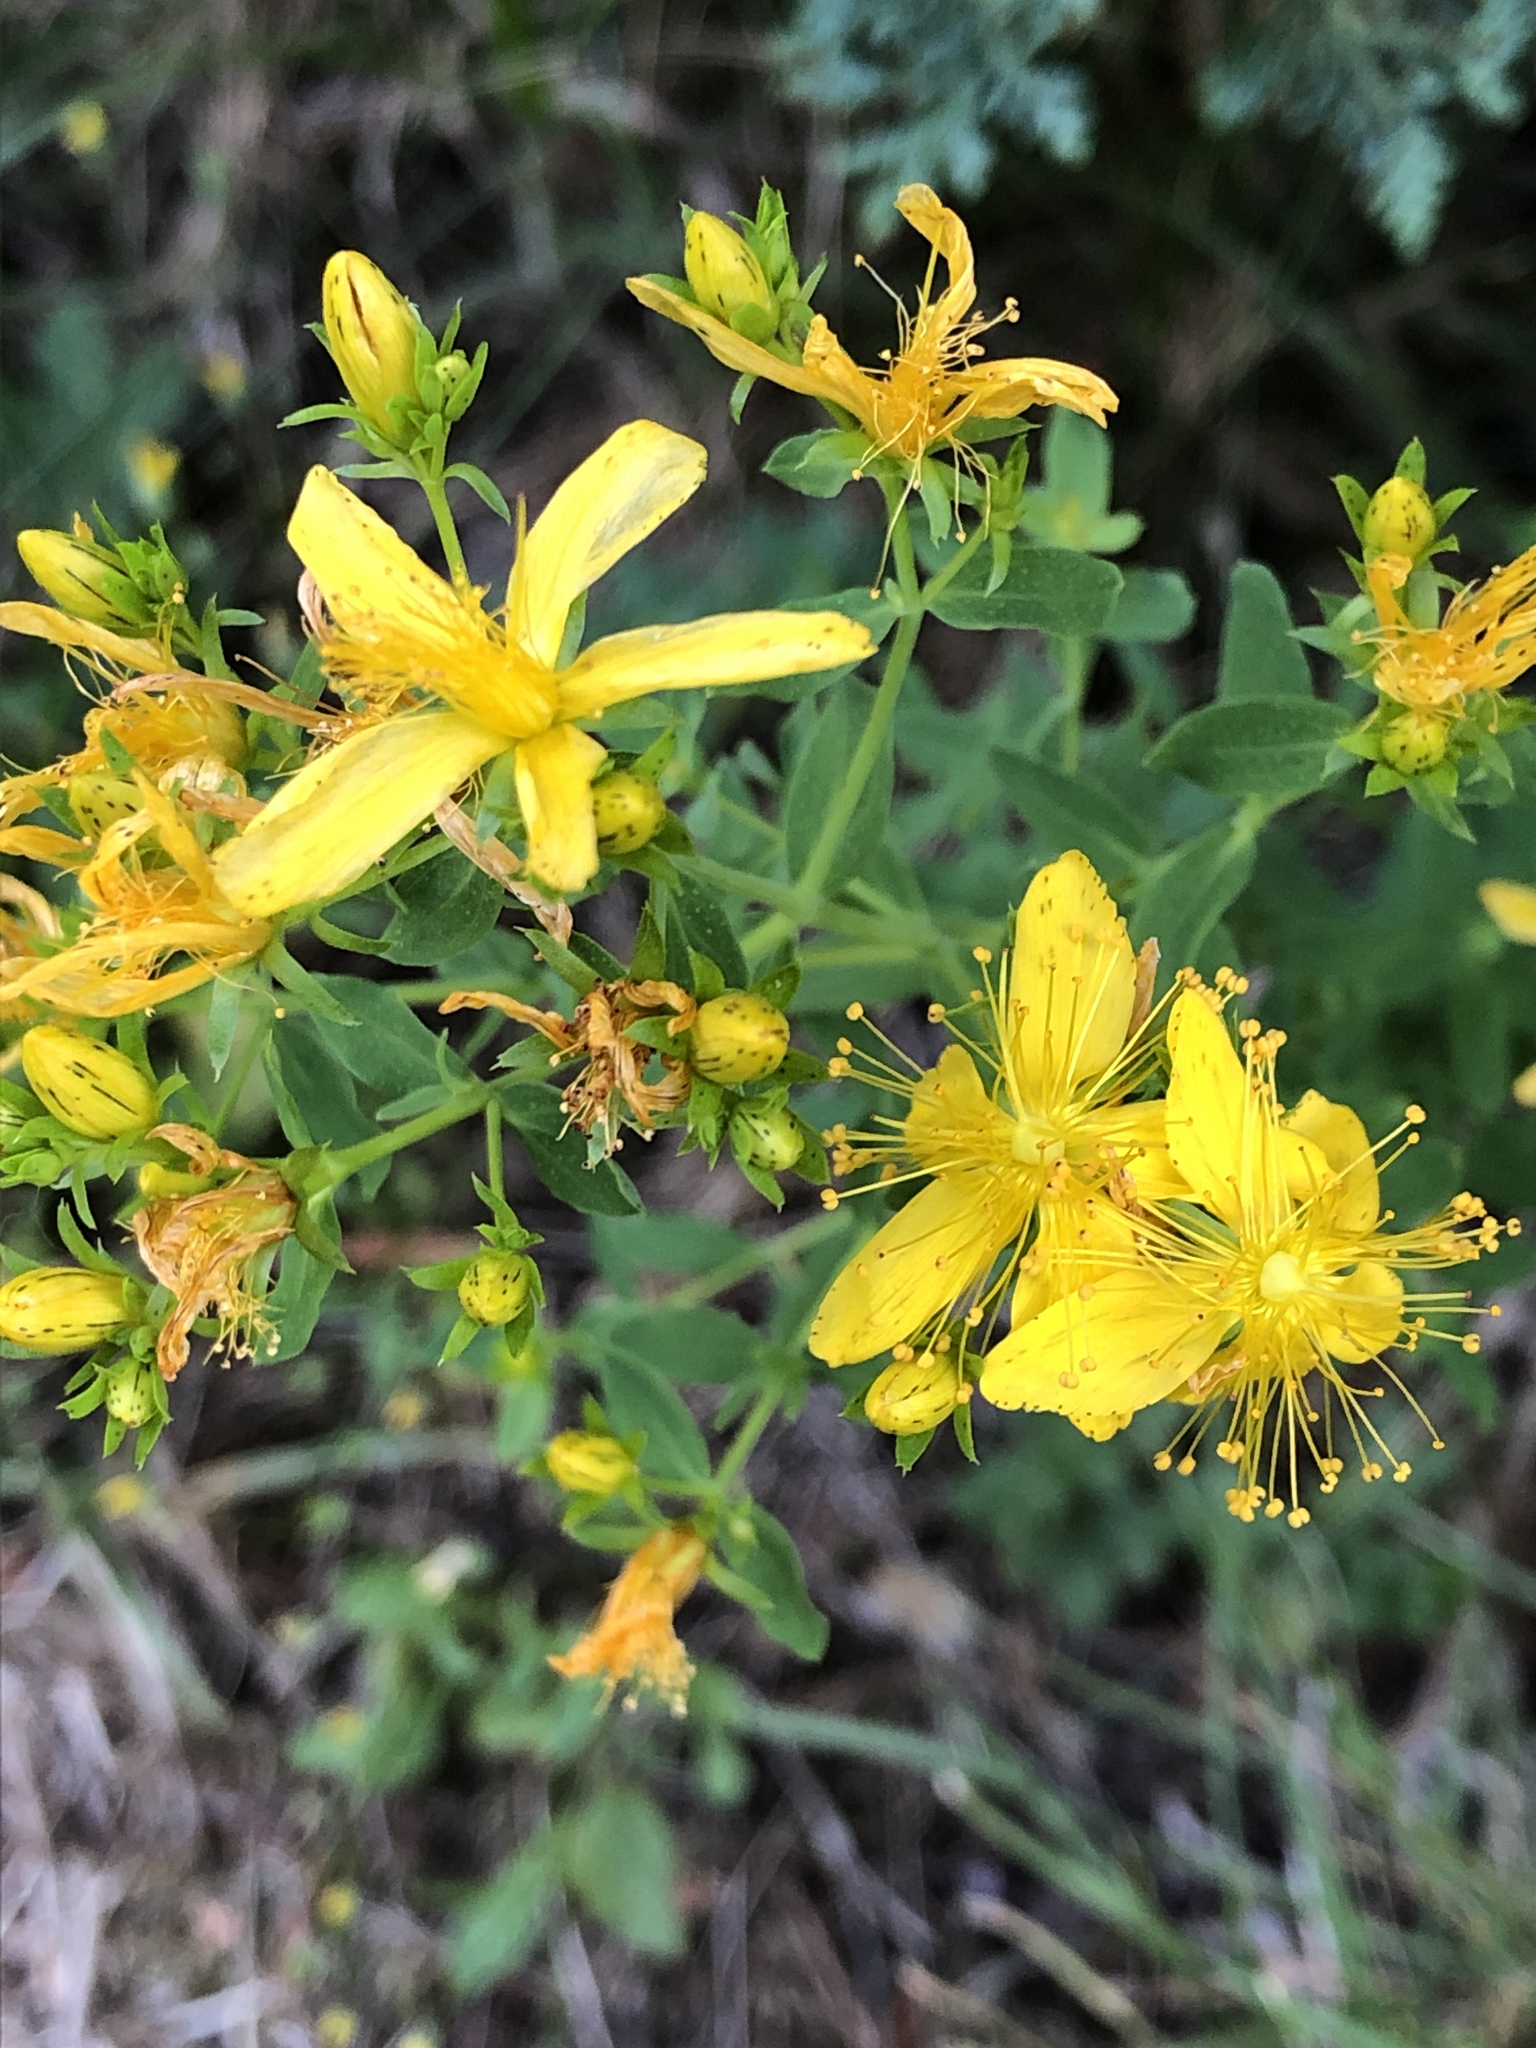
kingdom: Plantae
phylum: Tracheophyta
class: Magnoliopsida
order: Malpighiales
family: Hypericaceae
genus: Hypericum
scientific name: Hypericum perforatum
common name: Common st. johnswort
